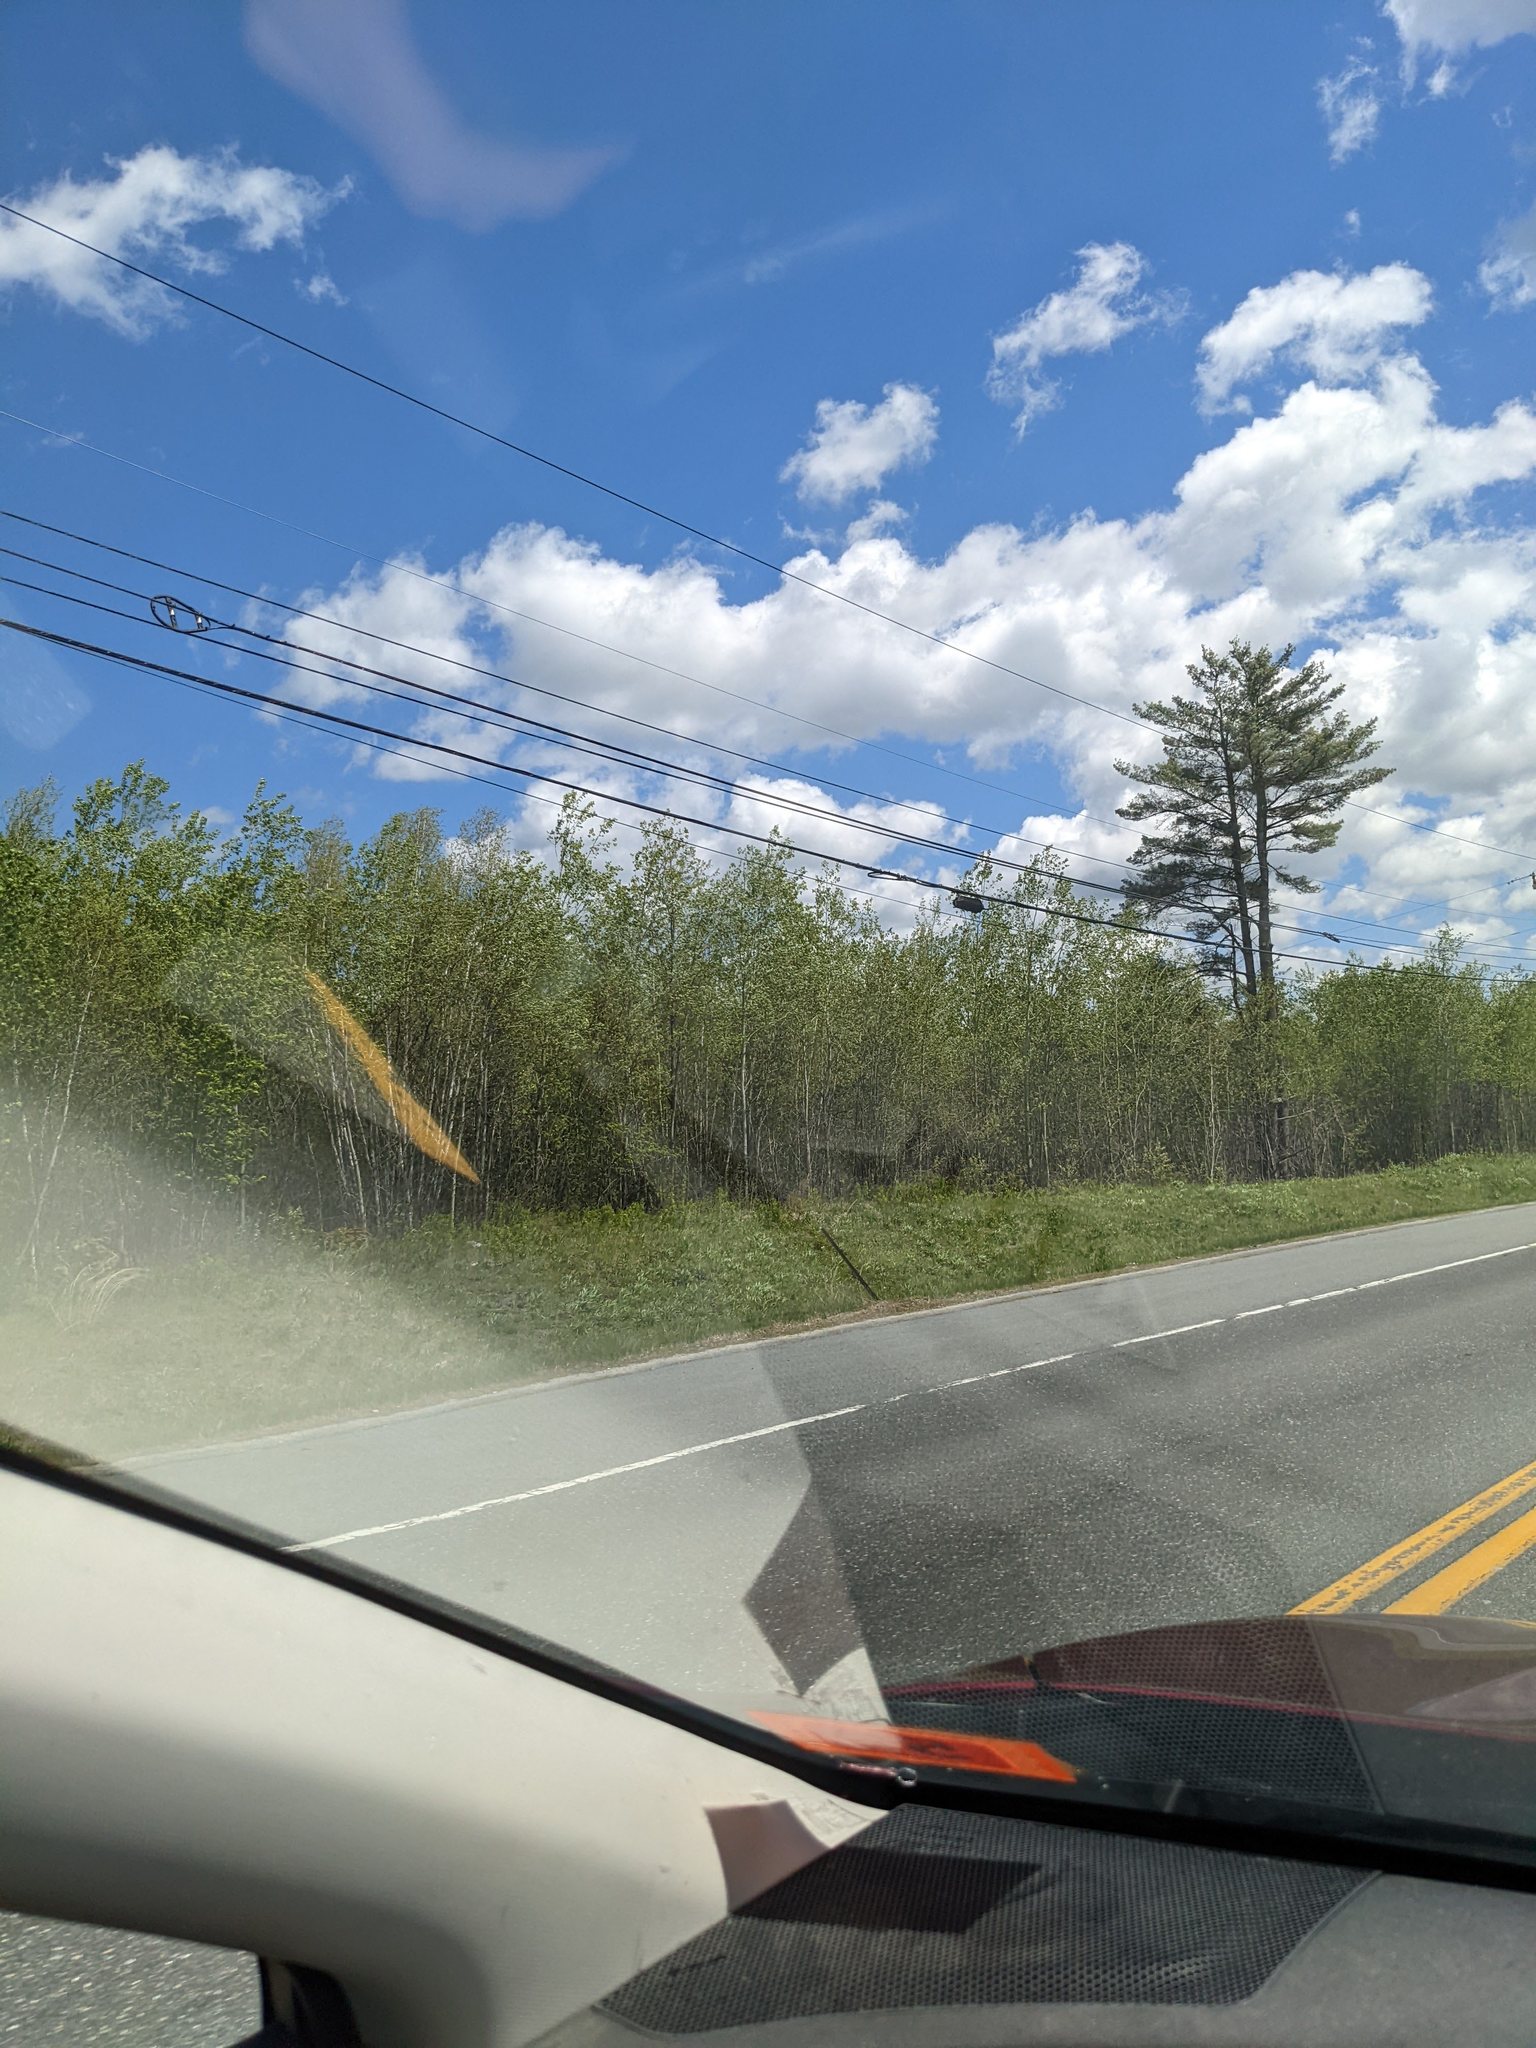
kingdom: Plantae
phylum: Tracheophyta
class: Pinopsida
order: Pinales
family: Pinaceae
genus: Pinus
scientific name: Pinus strobus
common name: Weymouth pine
